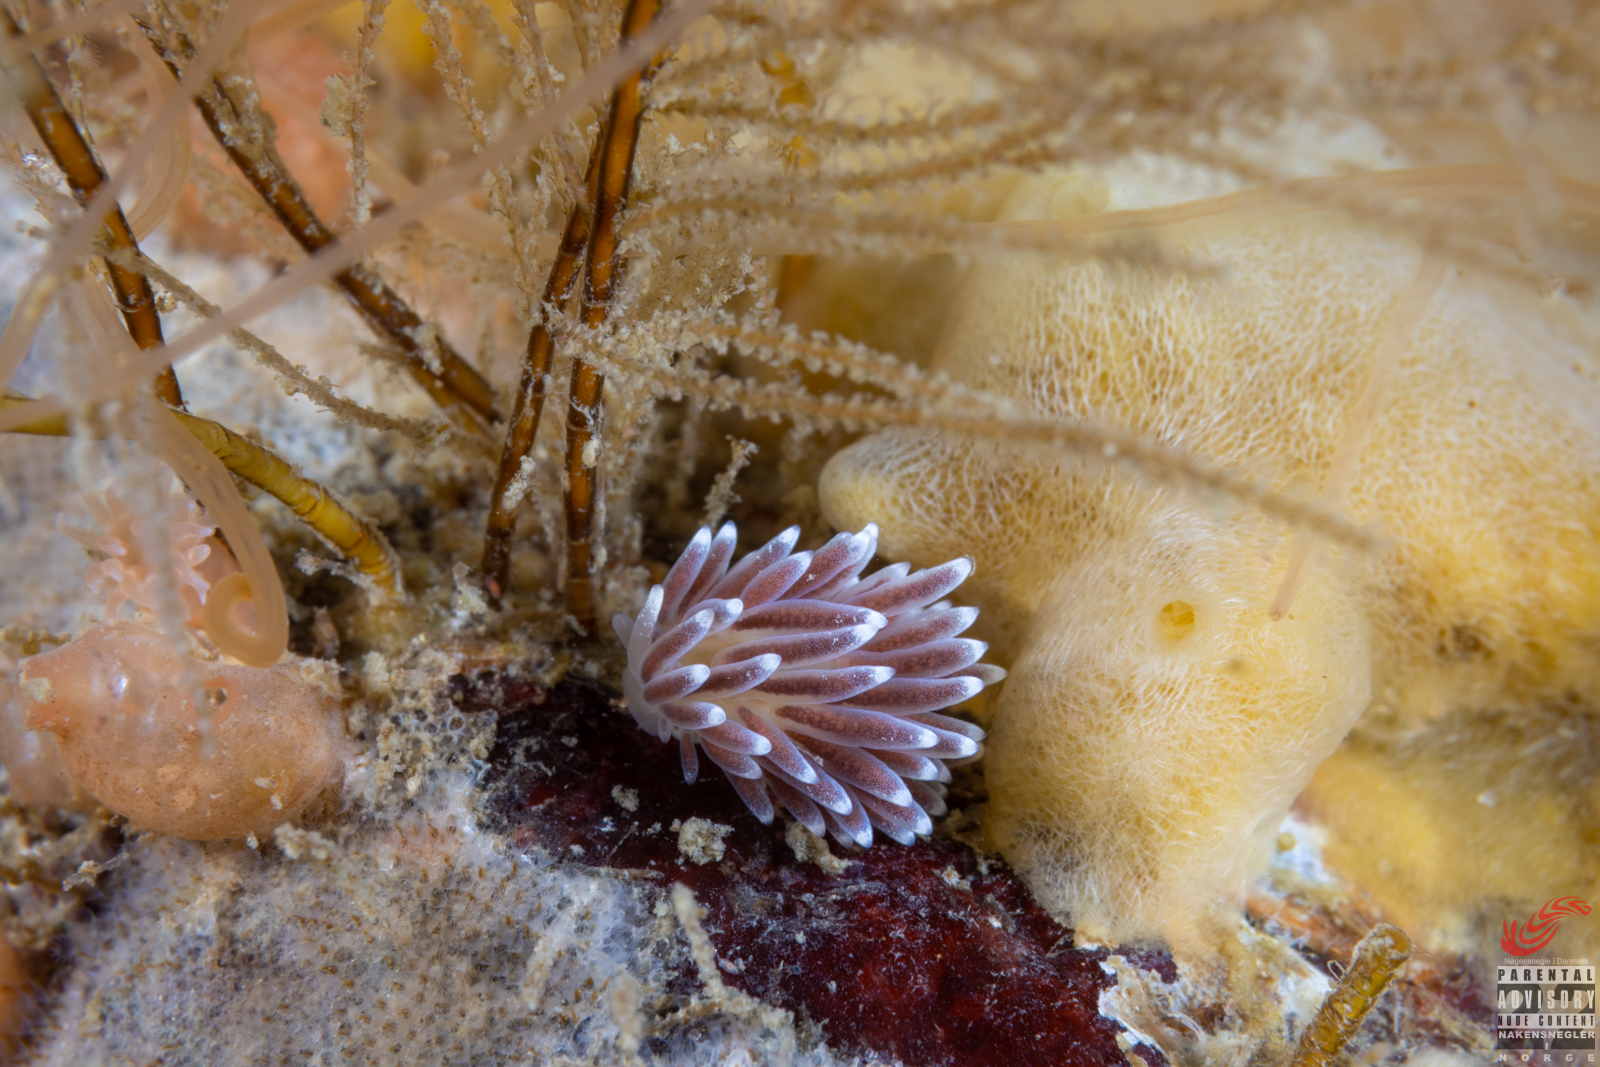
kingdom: Animalia
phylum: Mollusca
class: Gastropoda
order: Nudibranchia
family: Cuthonellidae
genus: Cuthonella
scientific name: Cuthonella concinna
